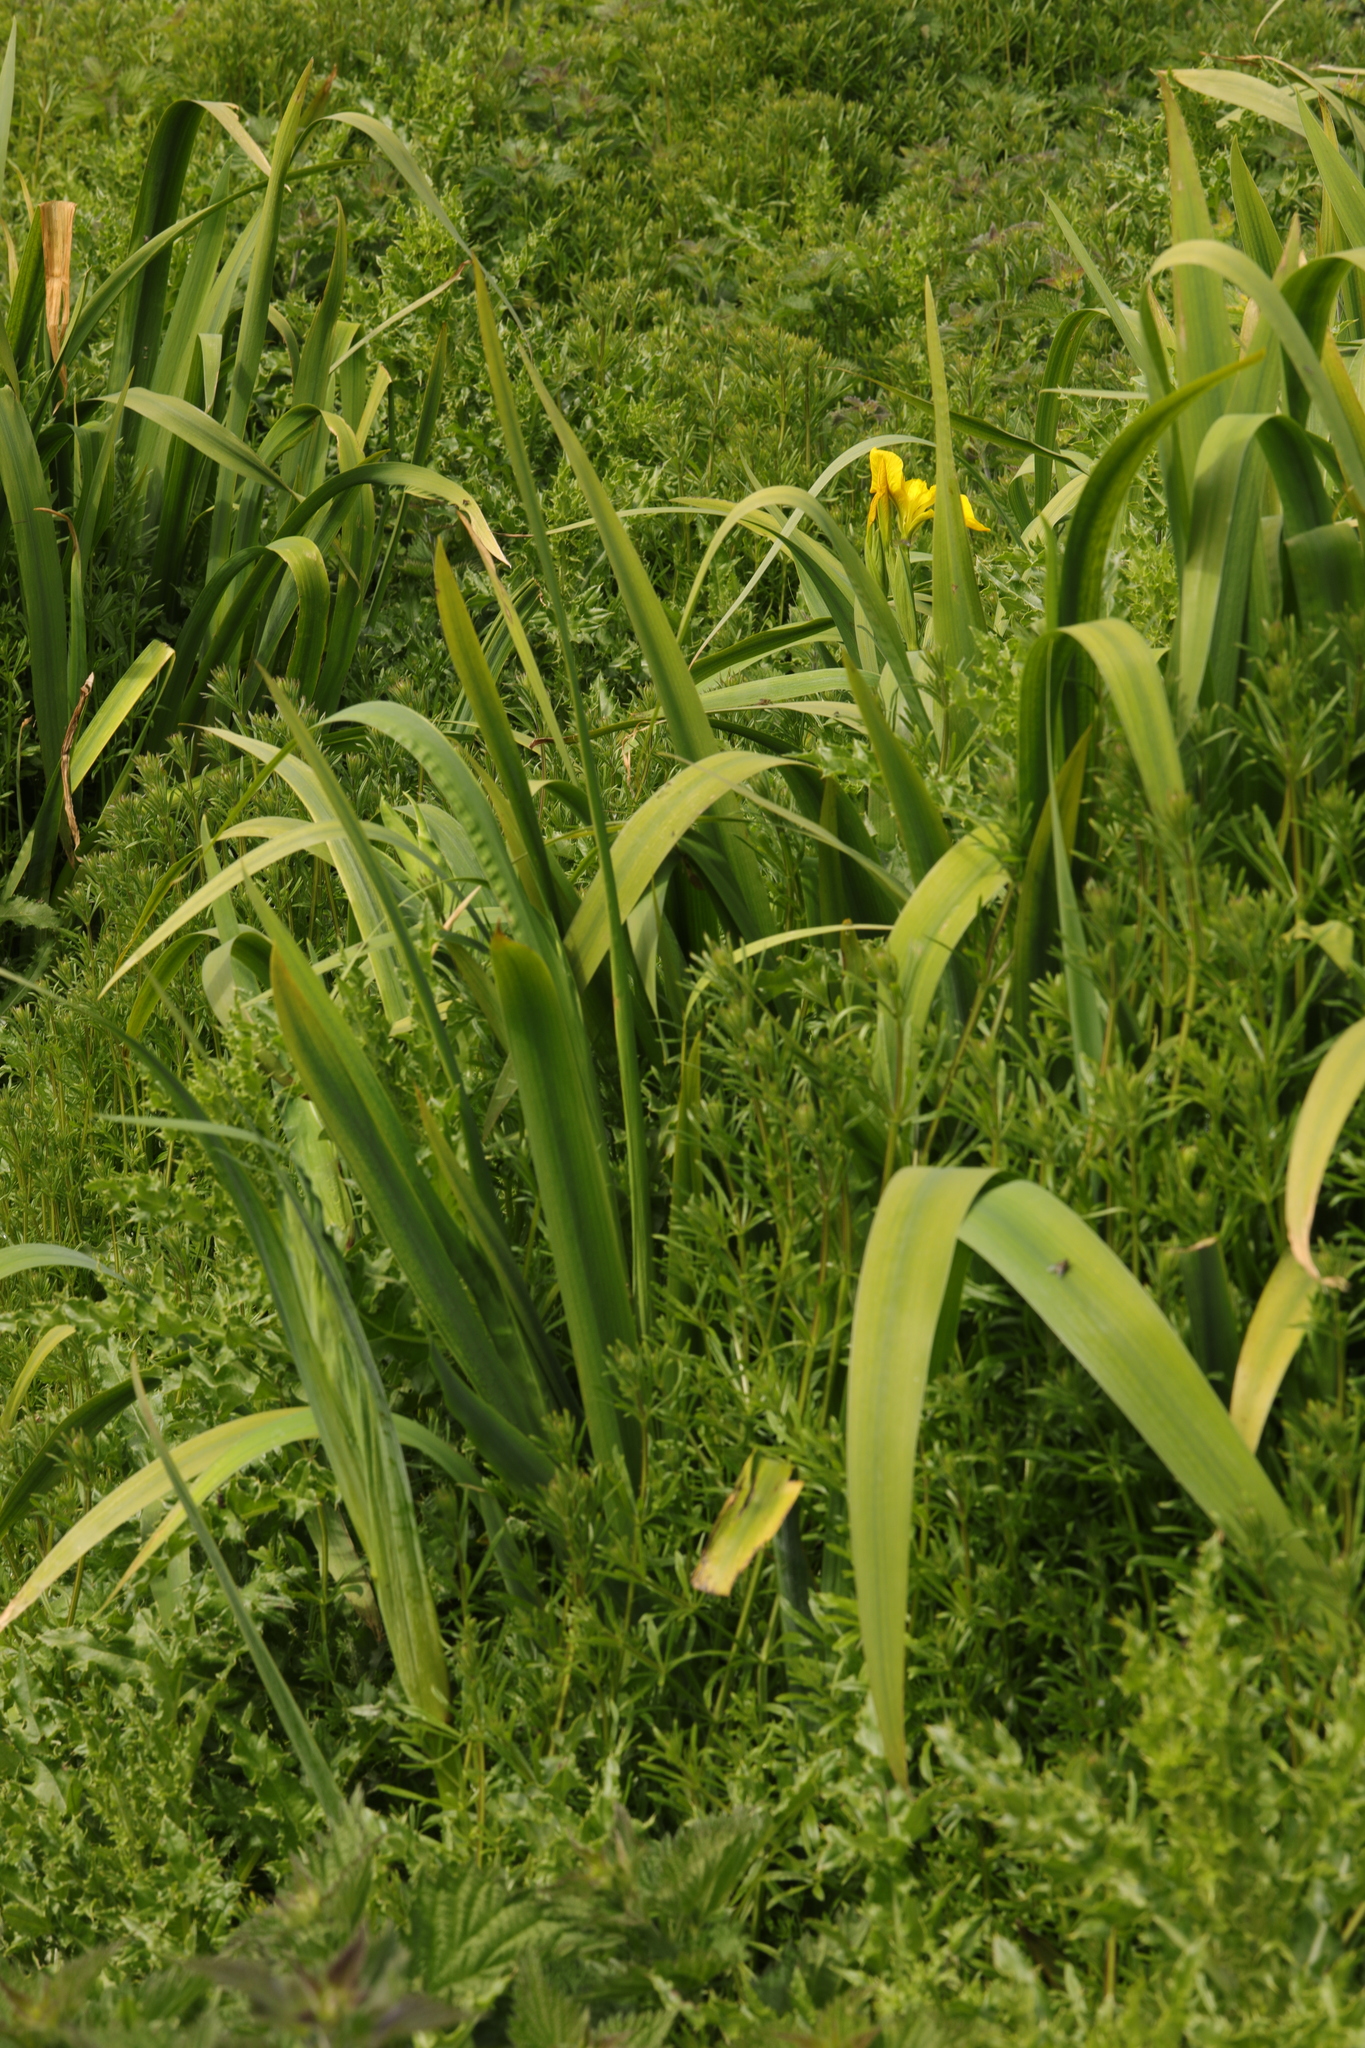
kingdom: Plantae
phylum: Tracheophyta
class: Liliopsida
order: Asparagales
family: Iridaceae
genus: Iris
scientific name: Iris pseudacorus
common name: Yellow flag
